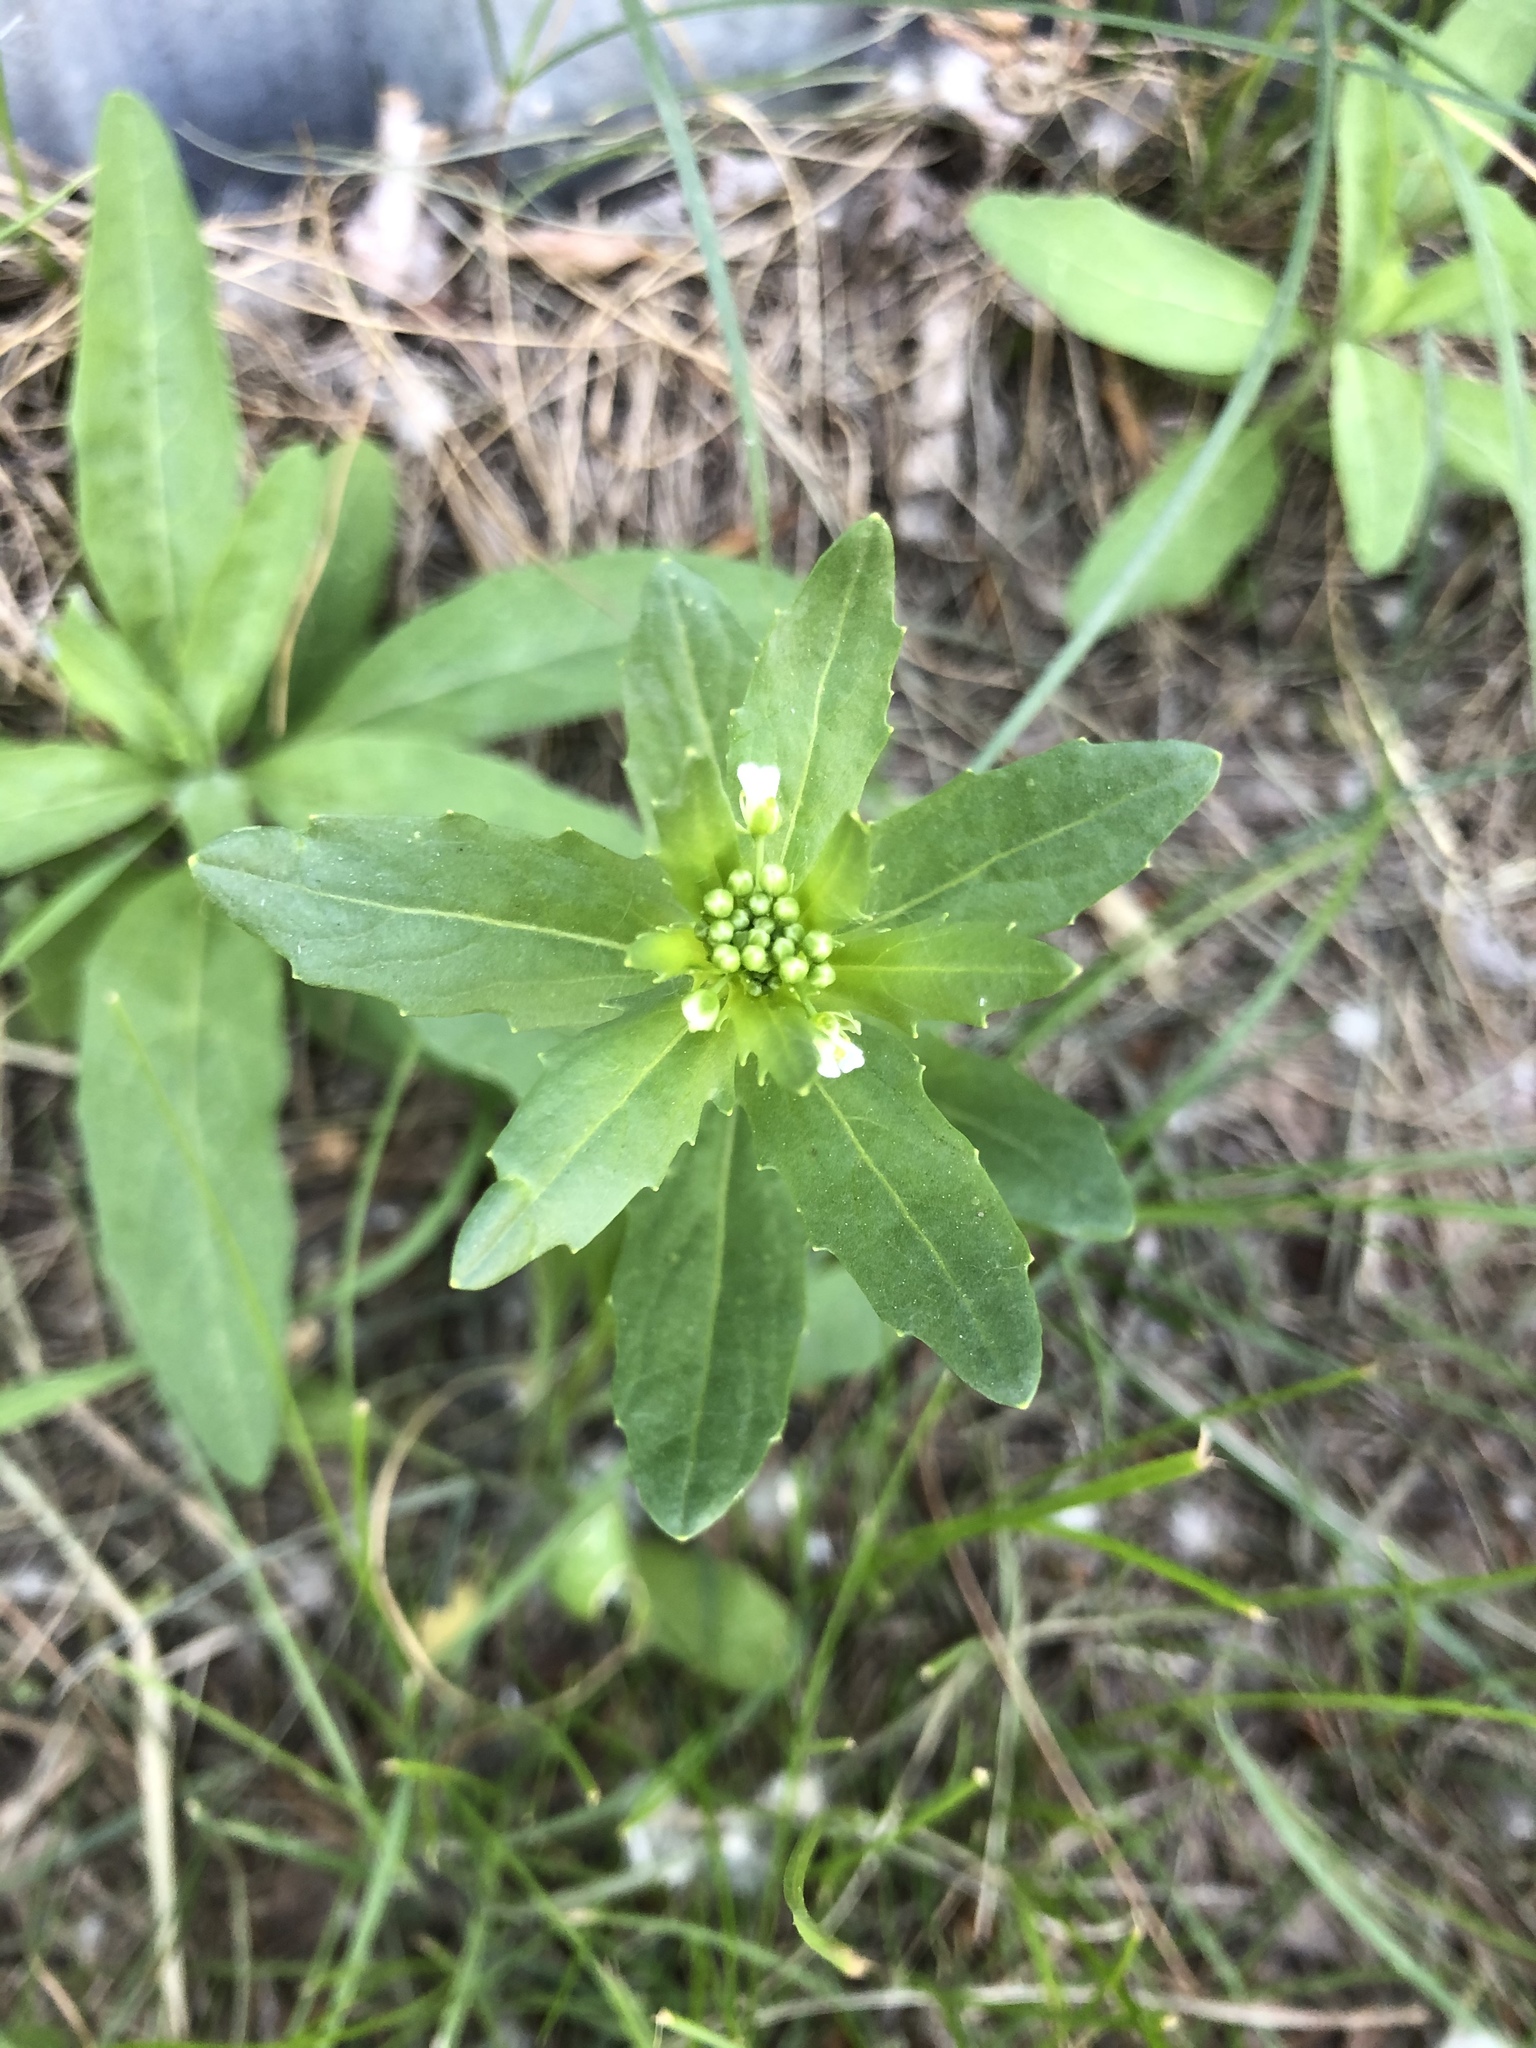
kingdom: Plantae
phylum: Tracheophyta
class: Magnoliopsida
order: Brassicales
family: Brassicaceae
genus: Thlaspi
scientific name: Thlaspi arvense
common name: Field pennycress
